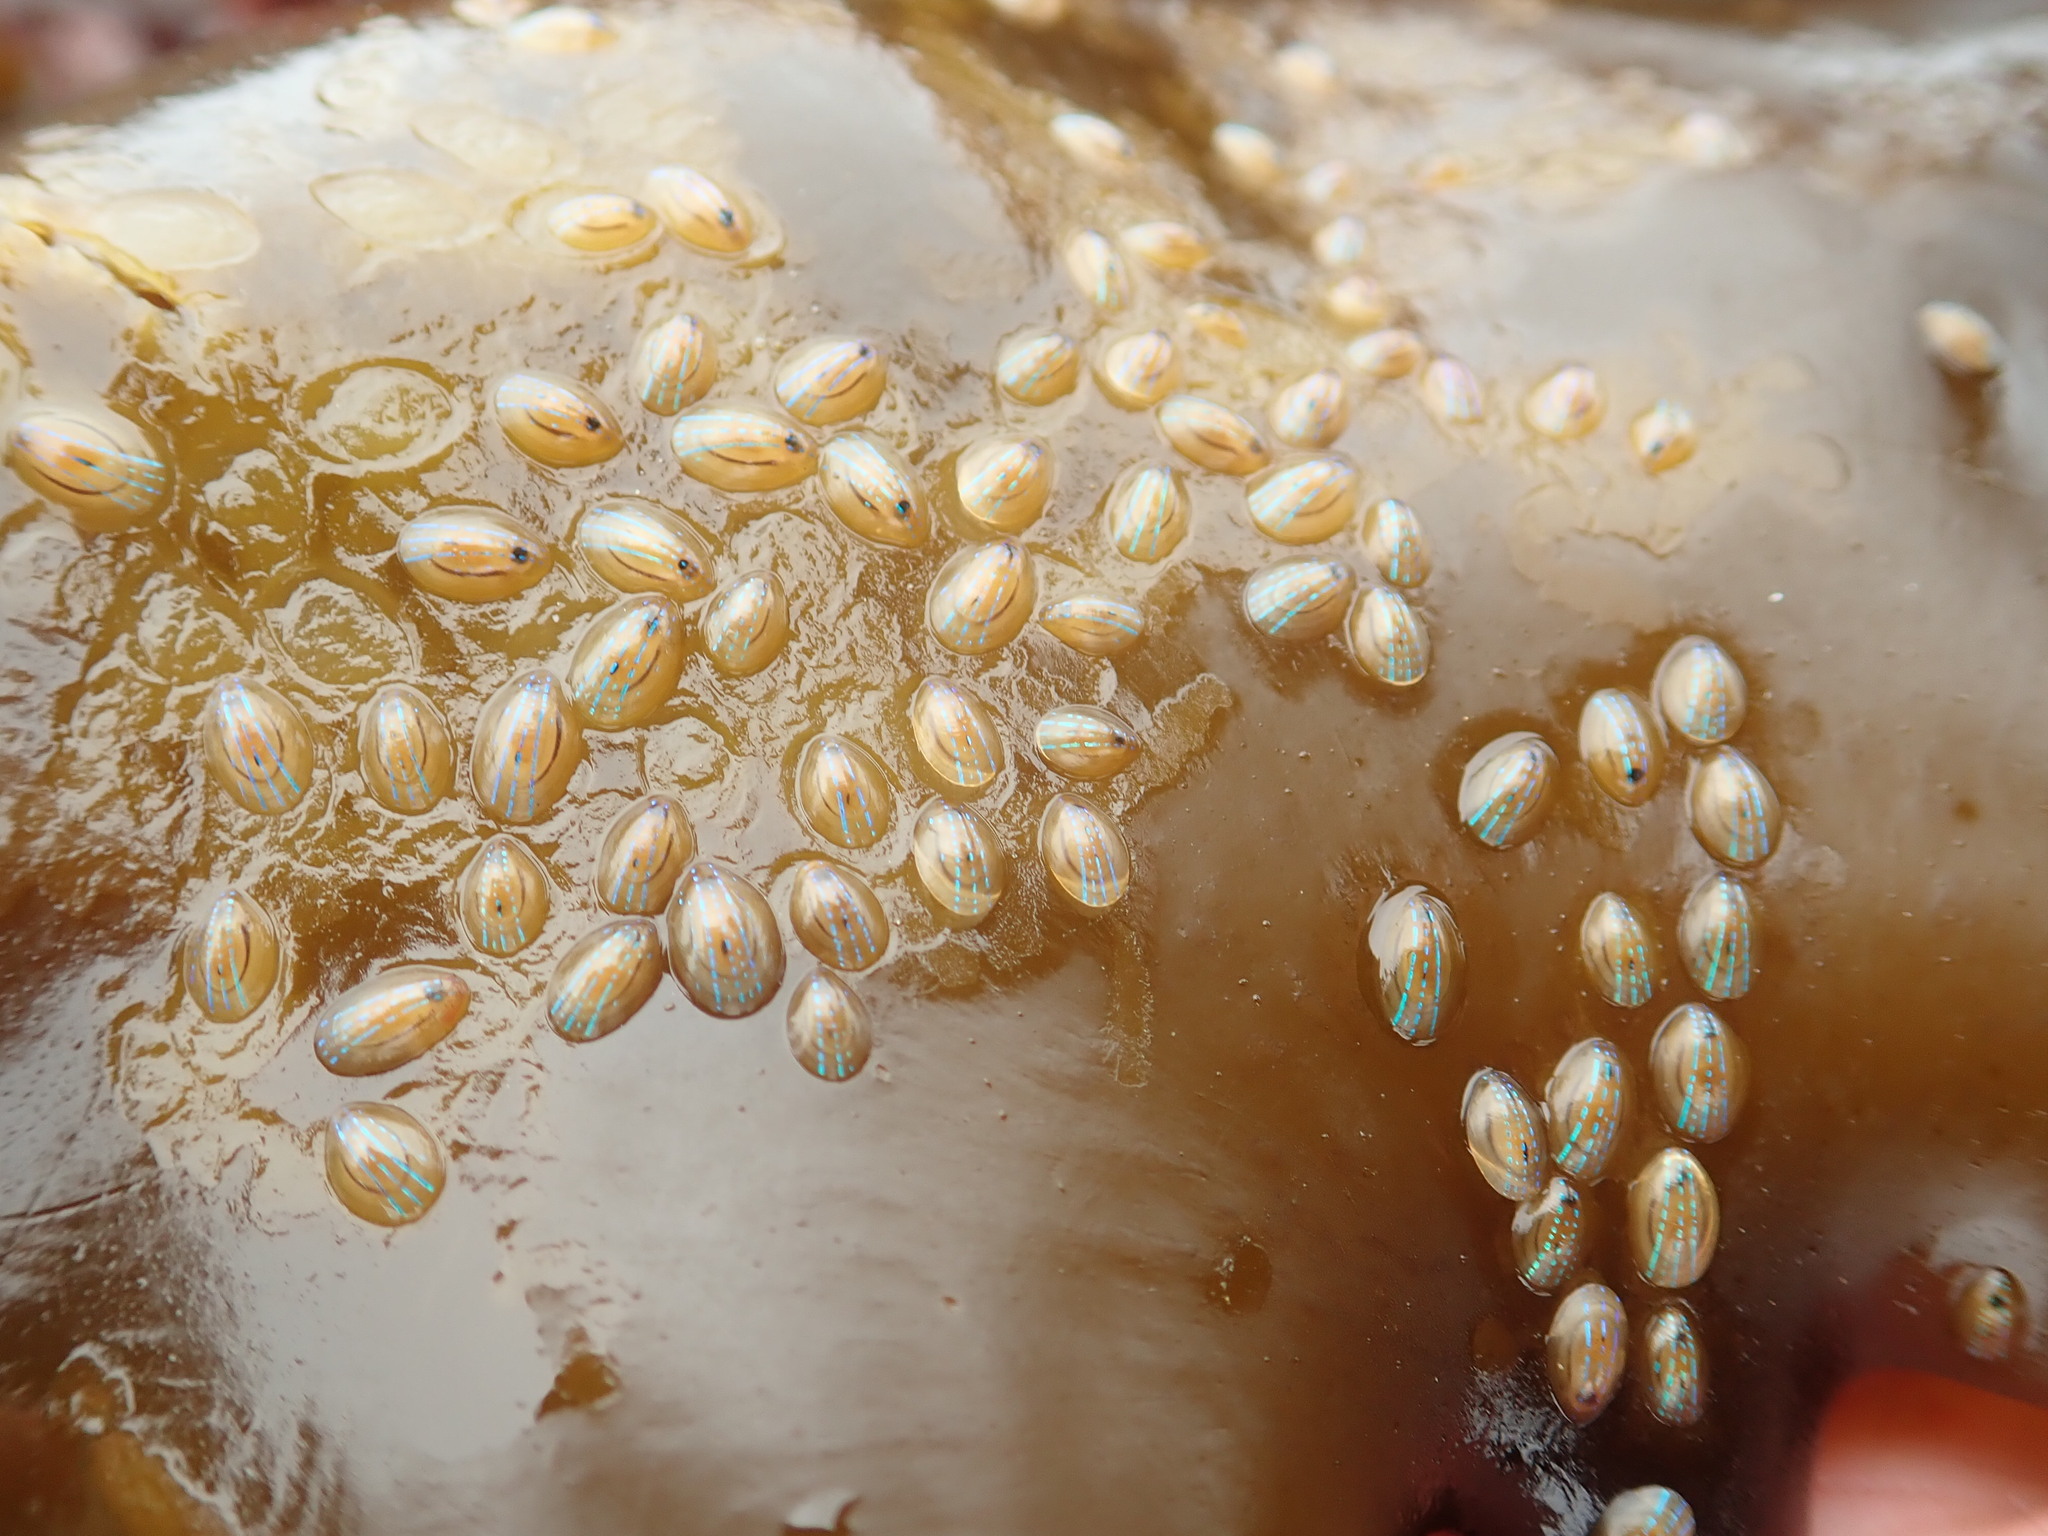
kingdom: Animalia
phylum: Mollusca
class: Gastropoda
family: Patellidae
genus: Patella
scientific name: Patella pellucida
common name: Blue-rayed limpet
